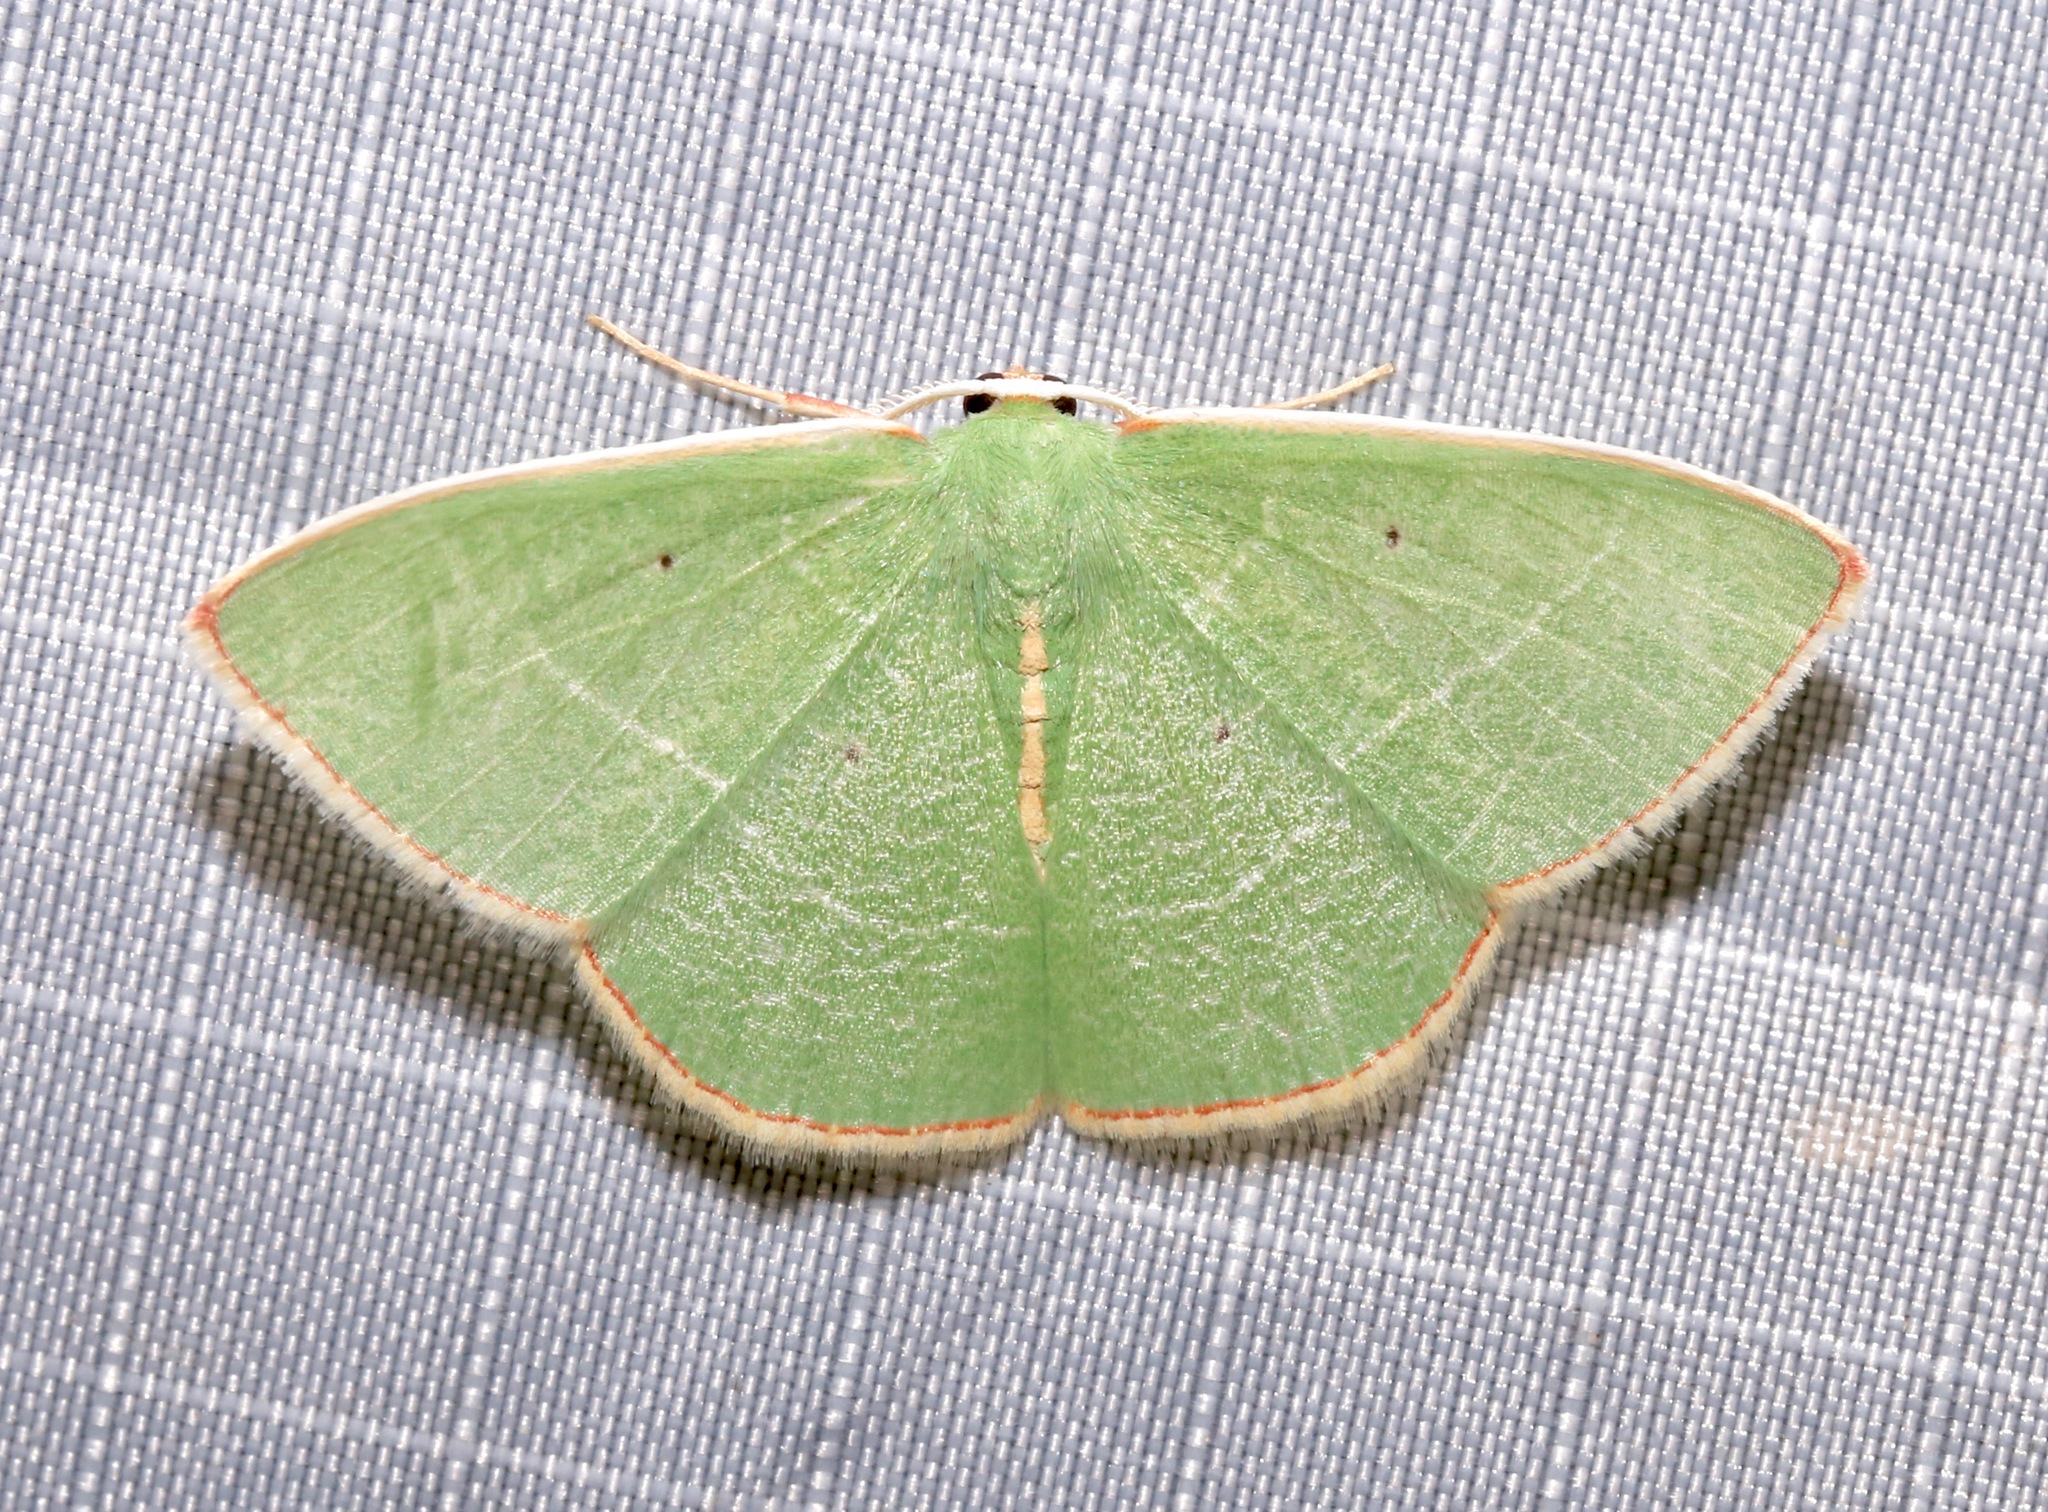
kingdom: Animalia
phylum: Arthropoda
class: Insecta
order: Lepidoptera
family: Geometridae
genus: Nemoria
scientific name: Nemoria bifilata
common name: White-barred emerald moth
